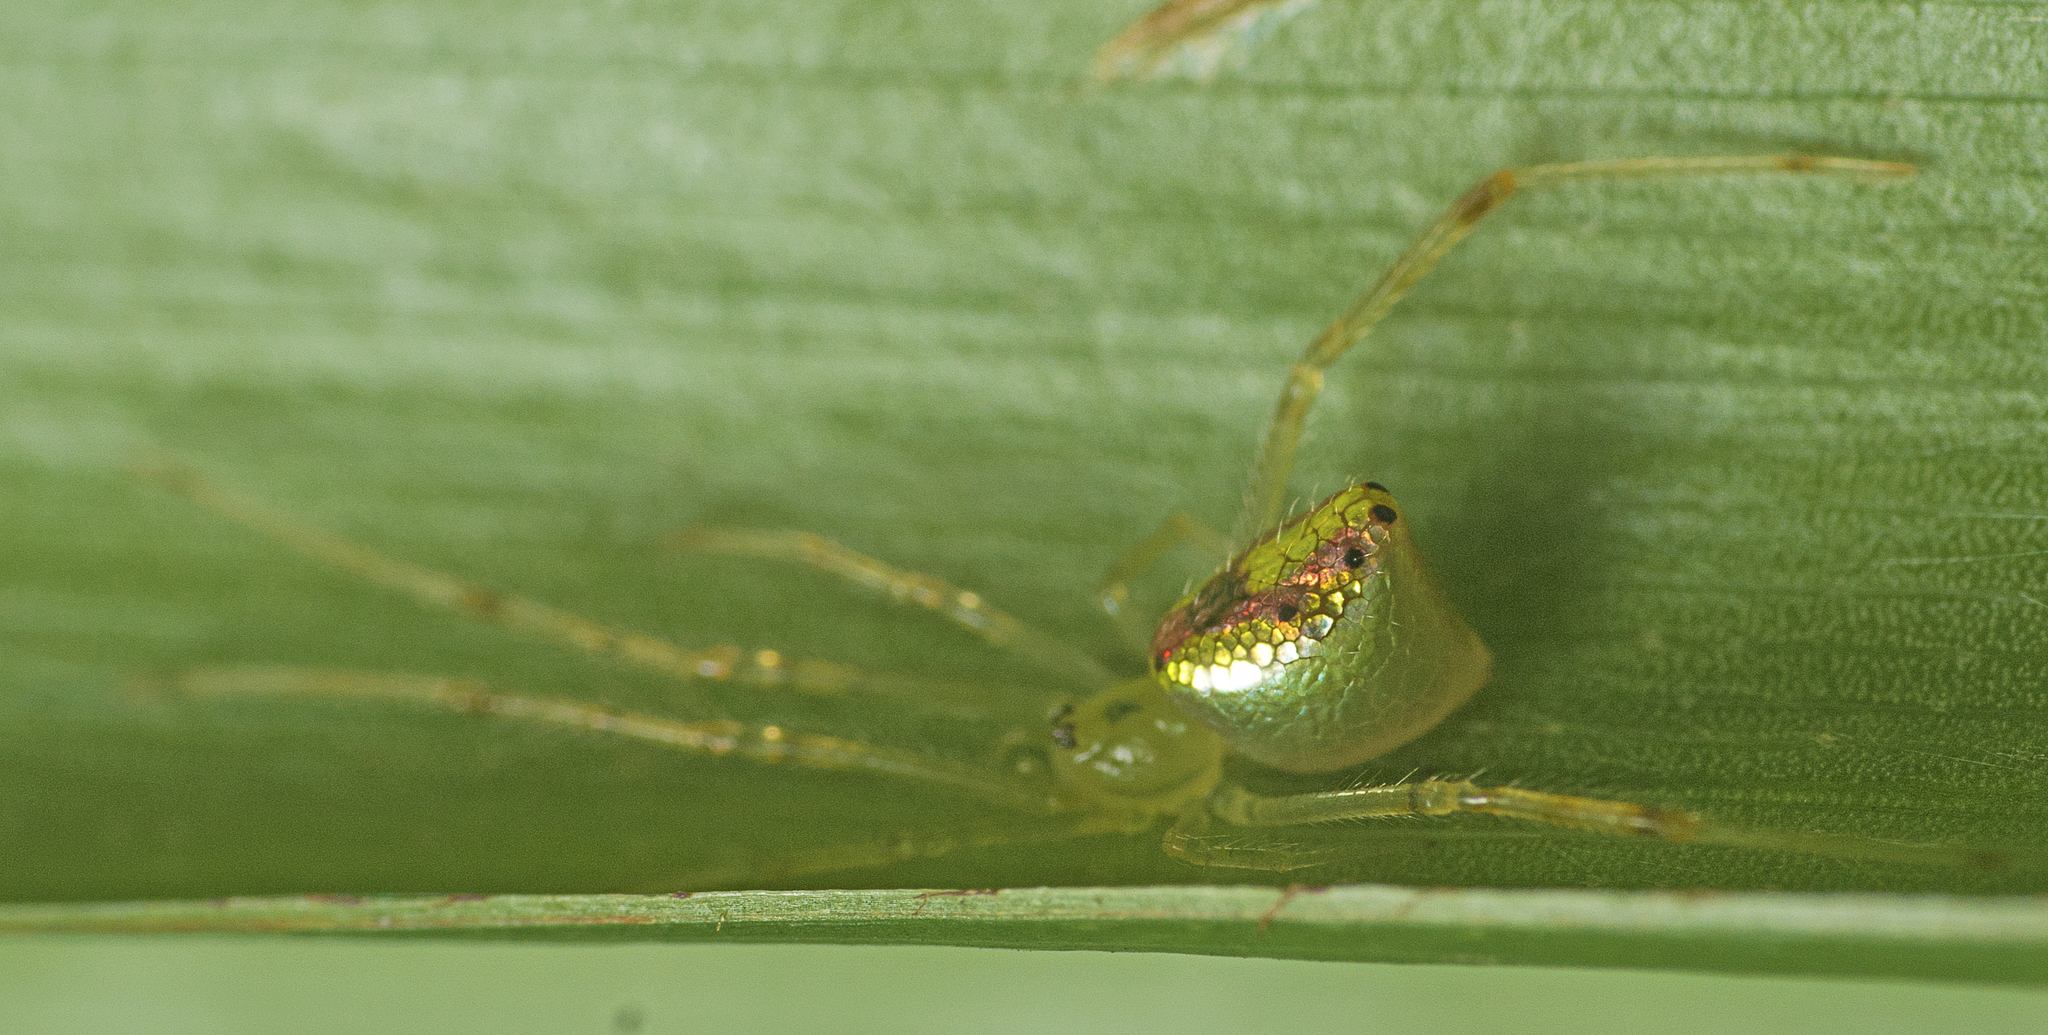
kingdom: Animalia
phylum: Arthropoda
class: Arachnida
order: Araneae
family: Theridiidae
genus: Thwaitesia
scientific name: Thwaitesia nigronodosa
